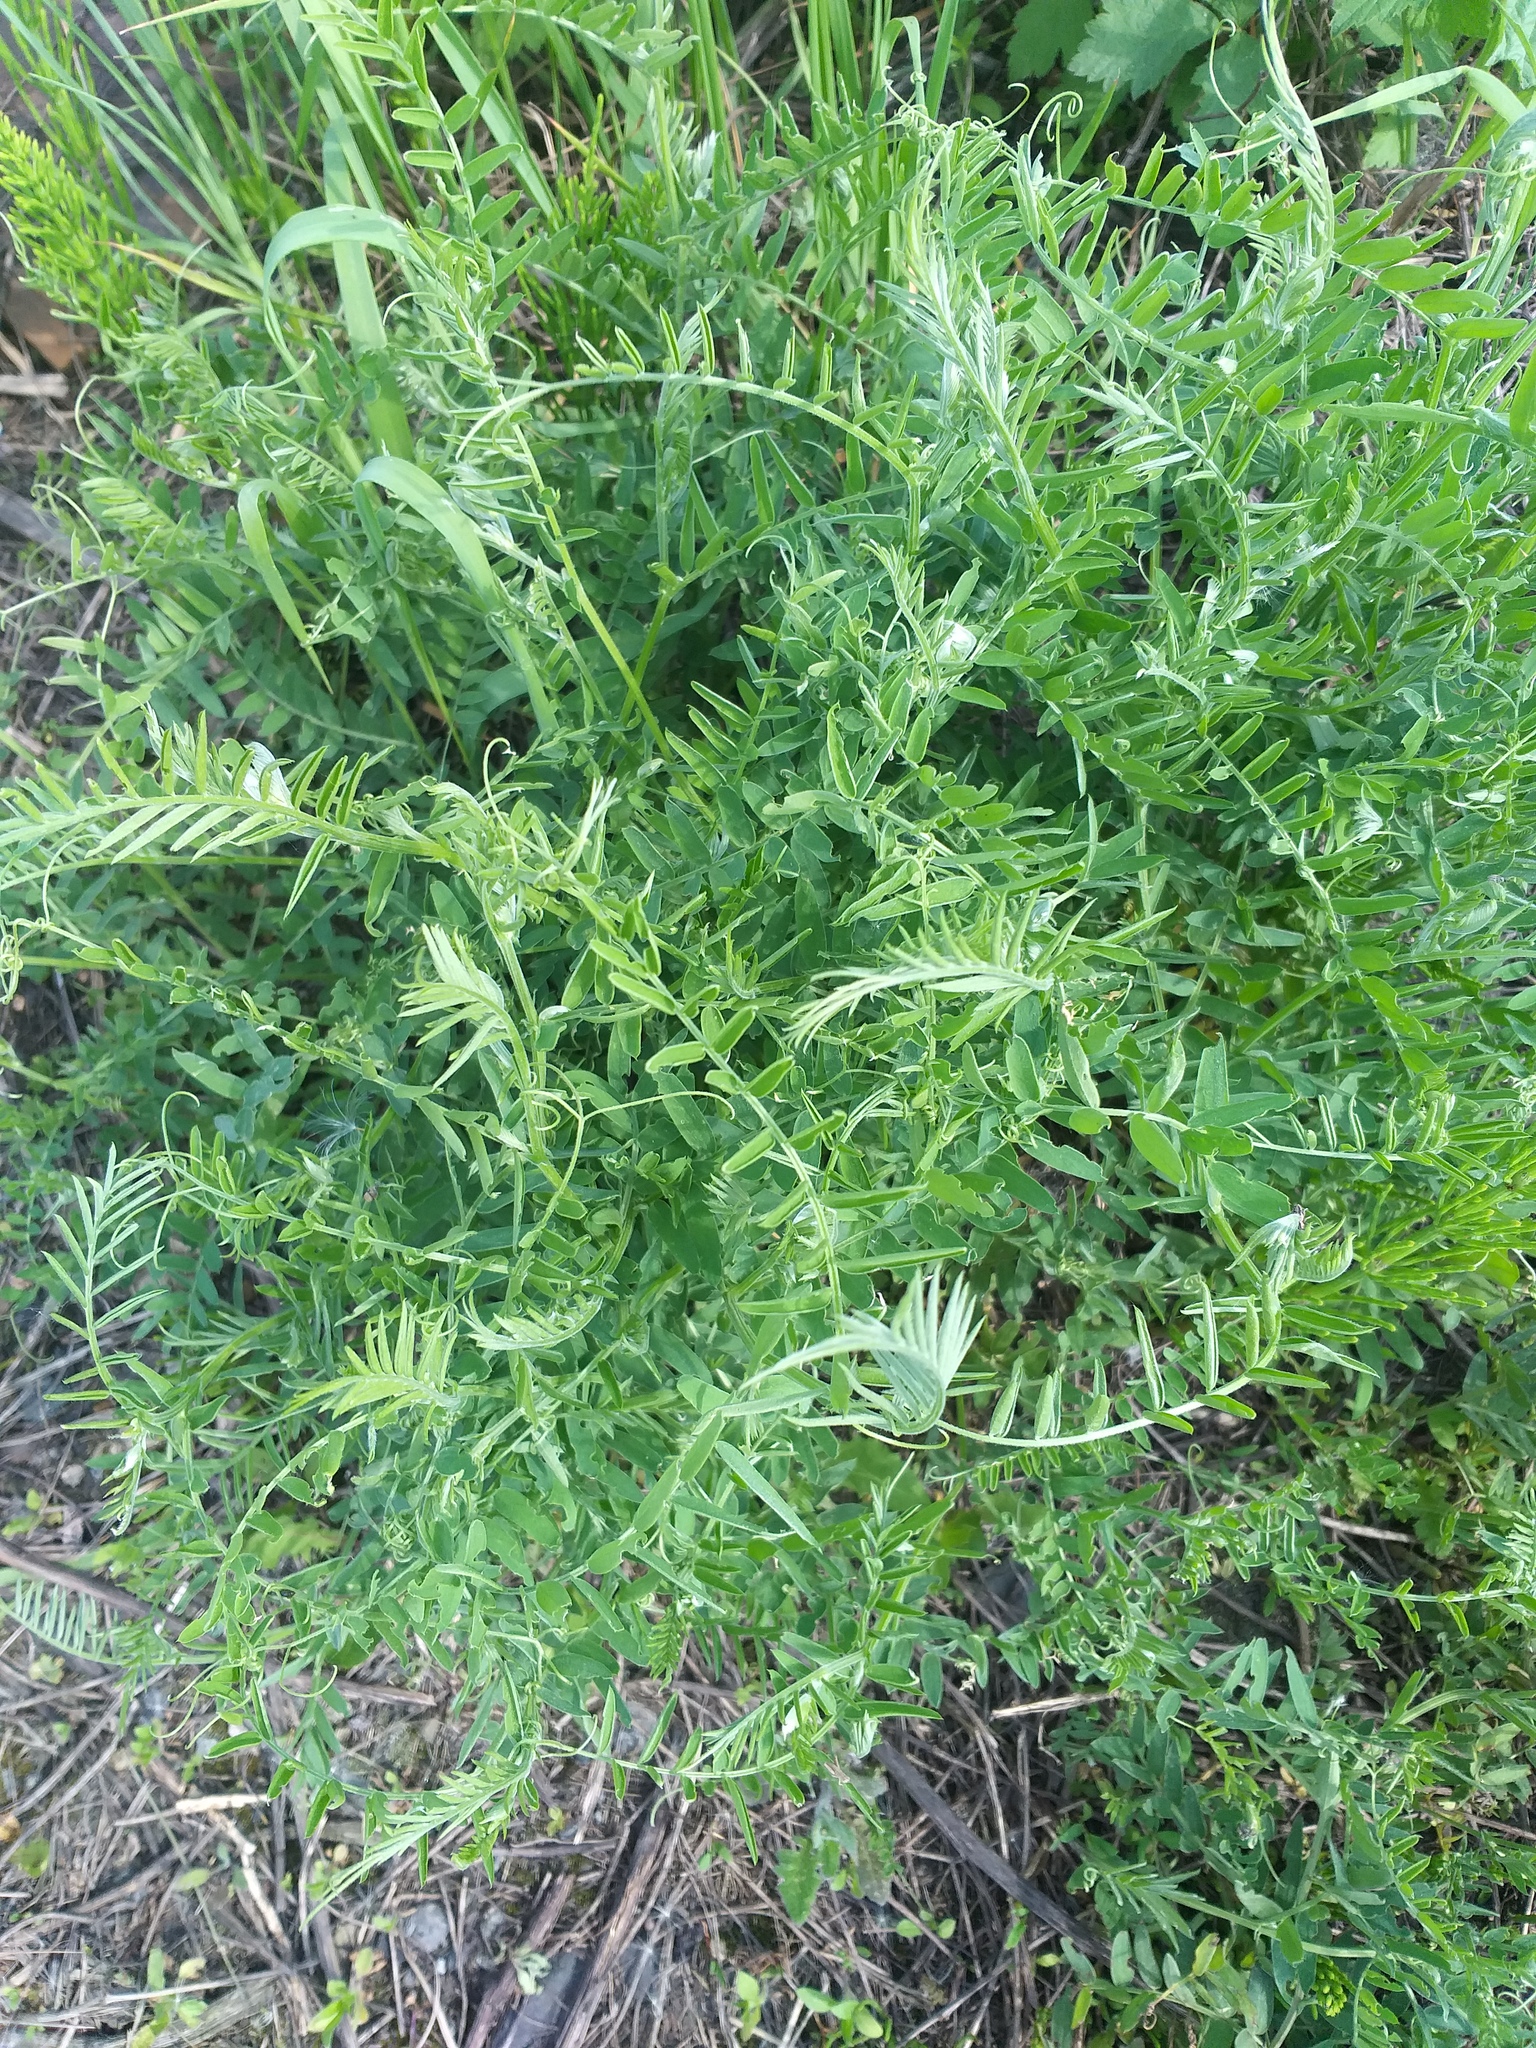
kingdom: Plantae
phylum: Tracheophyta
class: Magnoliopsida
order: Fabales
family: Fabaceae
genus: Vicia
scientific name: Vicia cracca
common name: Bird vetch
